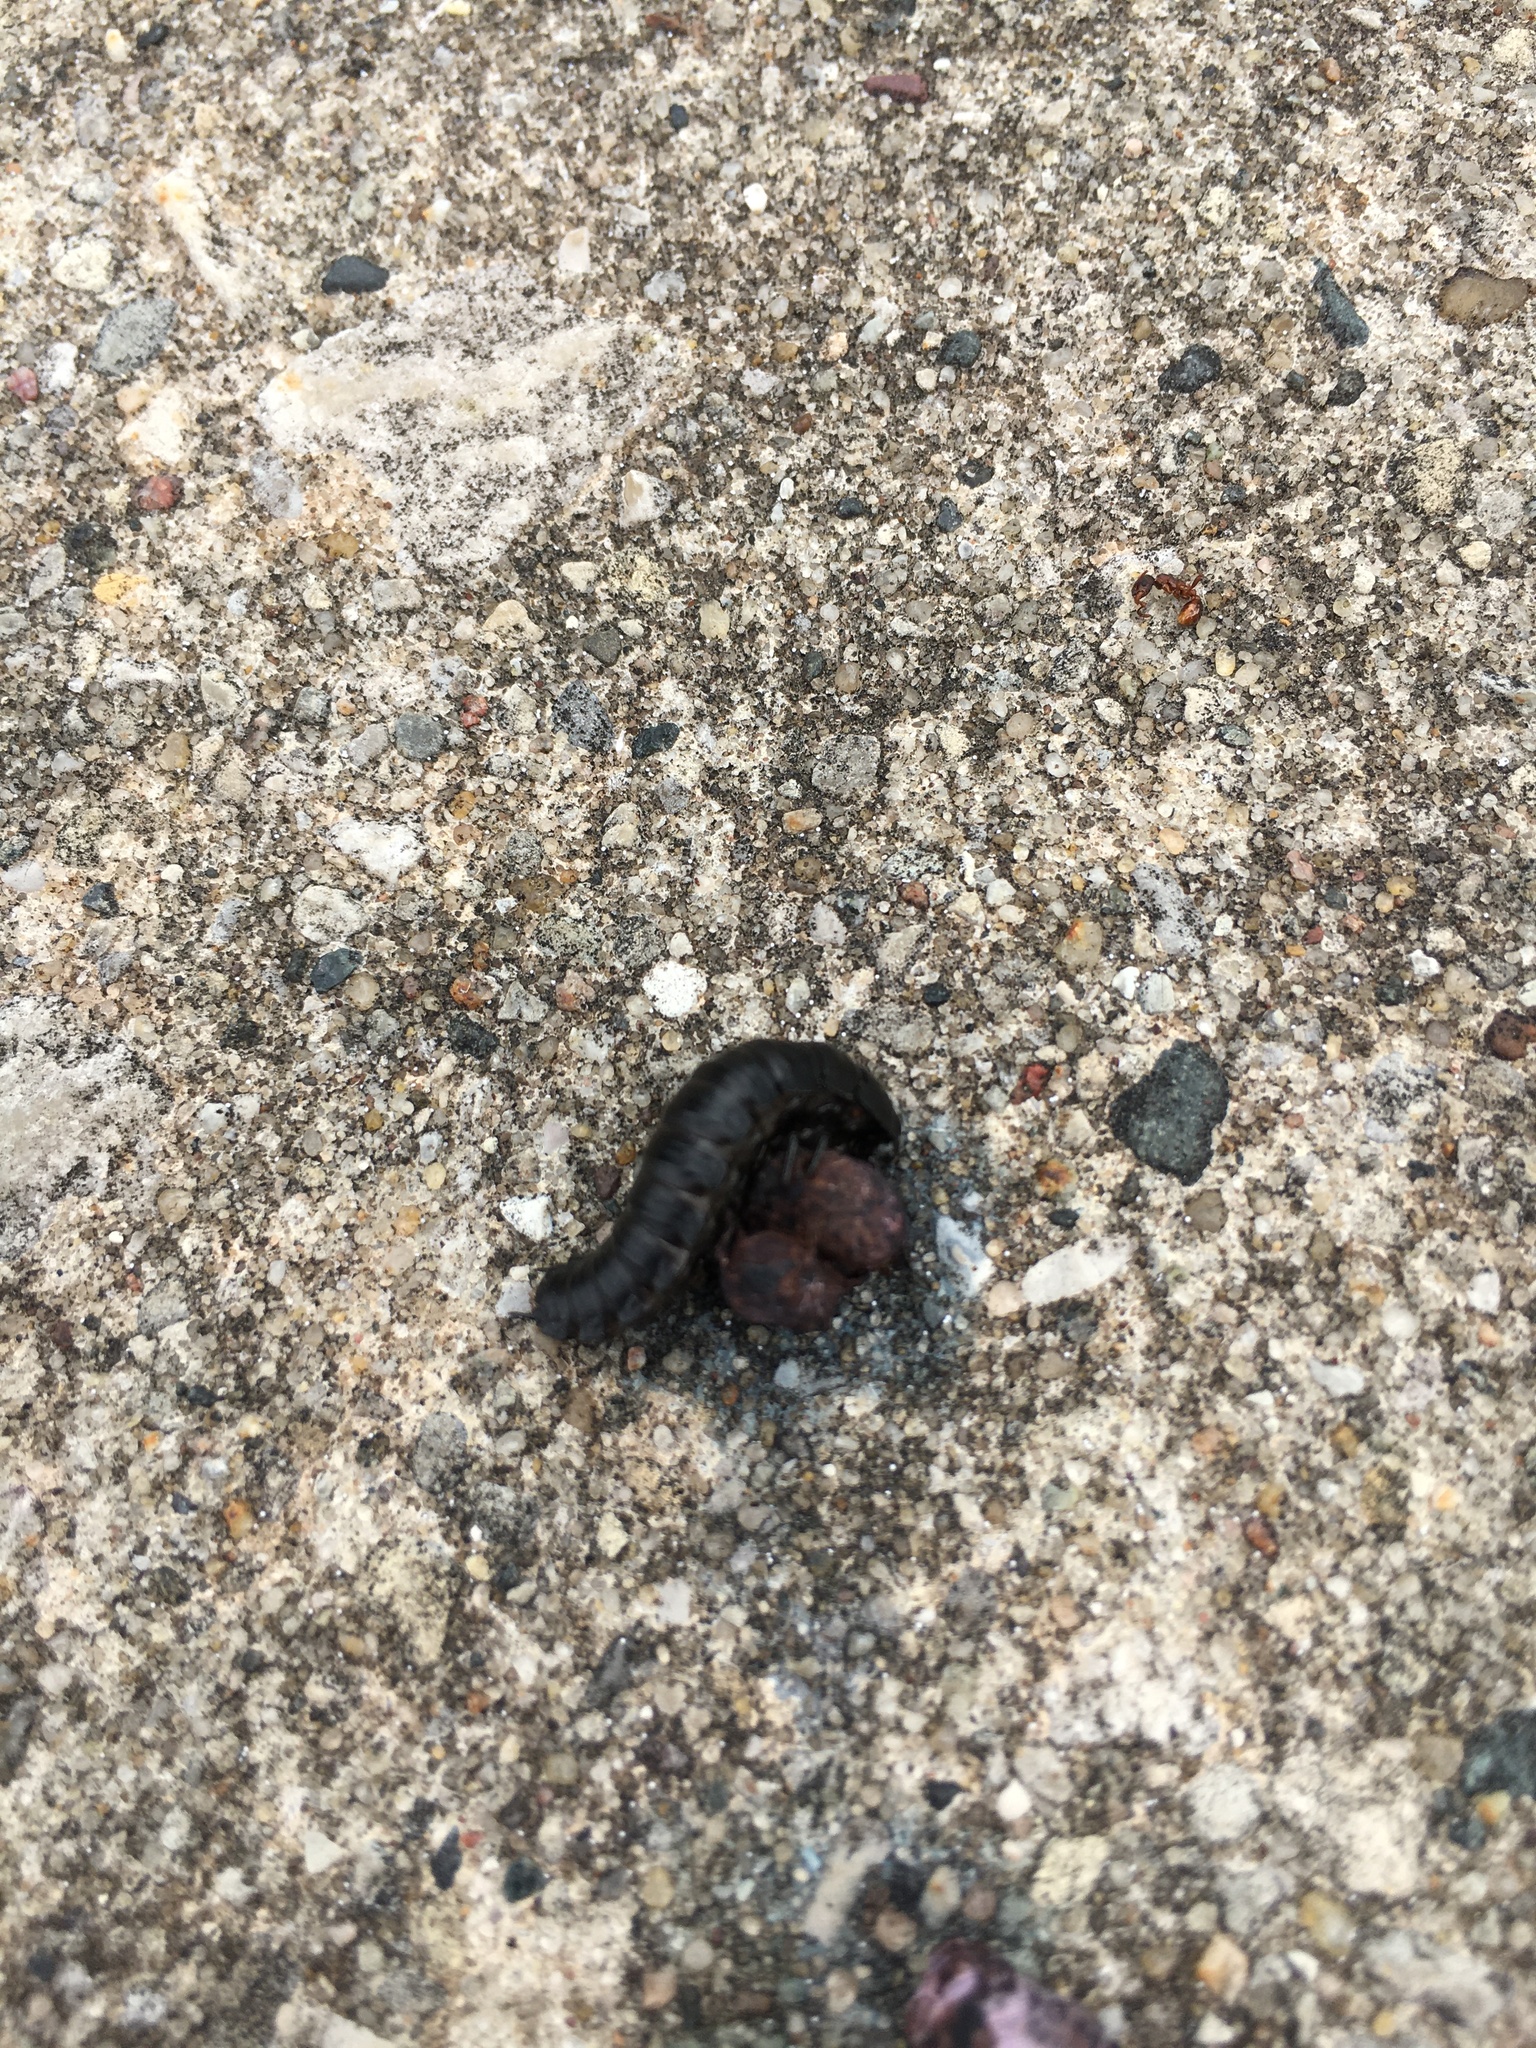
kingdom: Animalia
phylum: Arthropoda
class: Insecta
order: Coleoptera
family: Staphylinidae
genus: Necrophila
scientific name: Necrophila americana
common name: American carrion beetle
